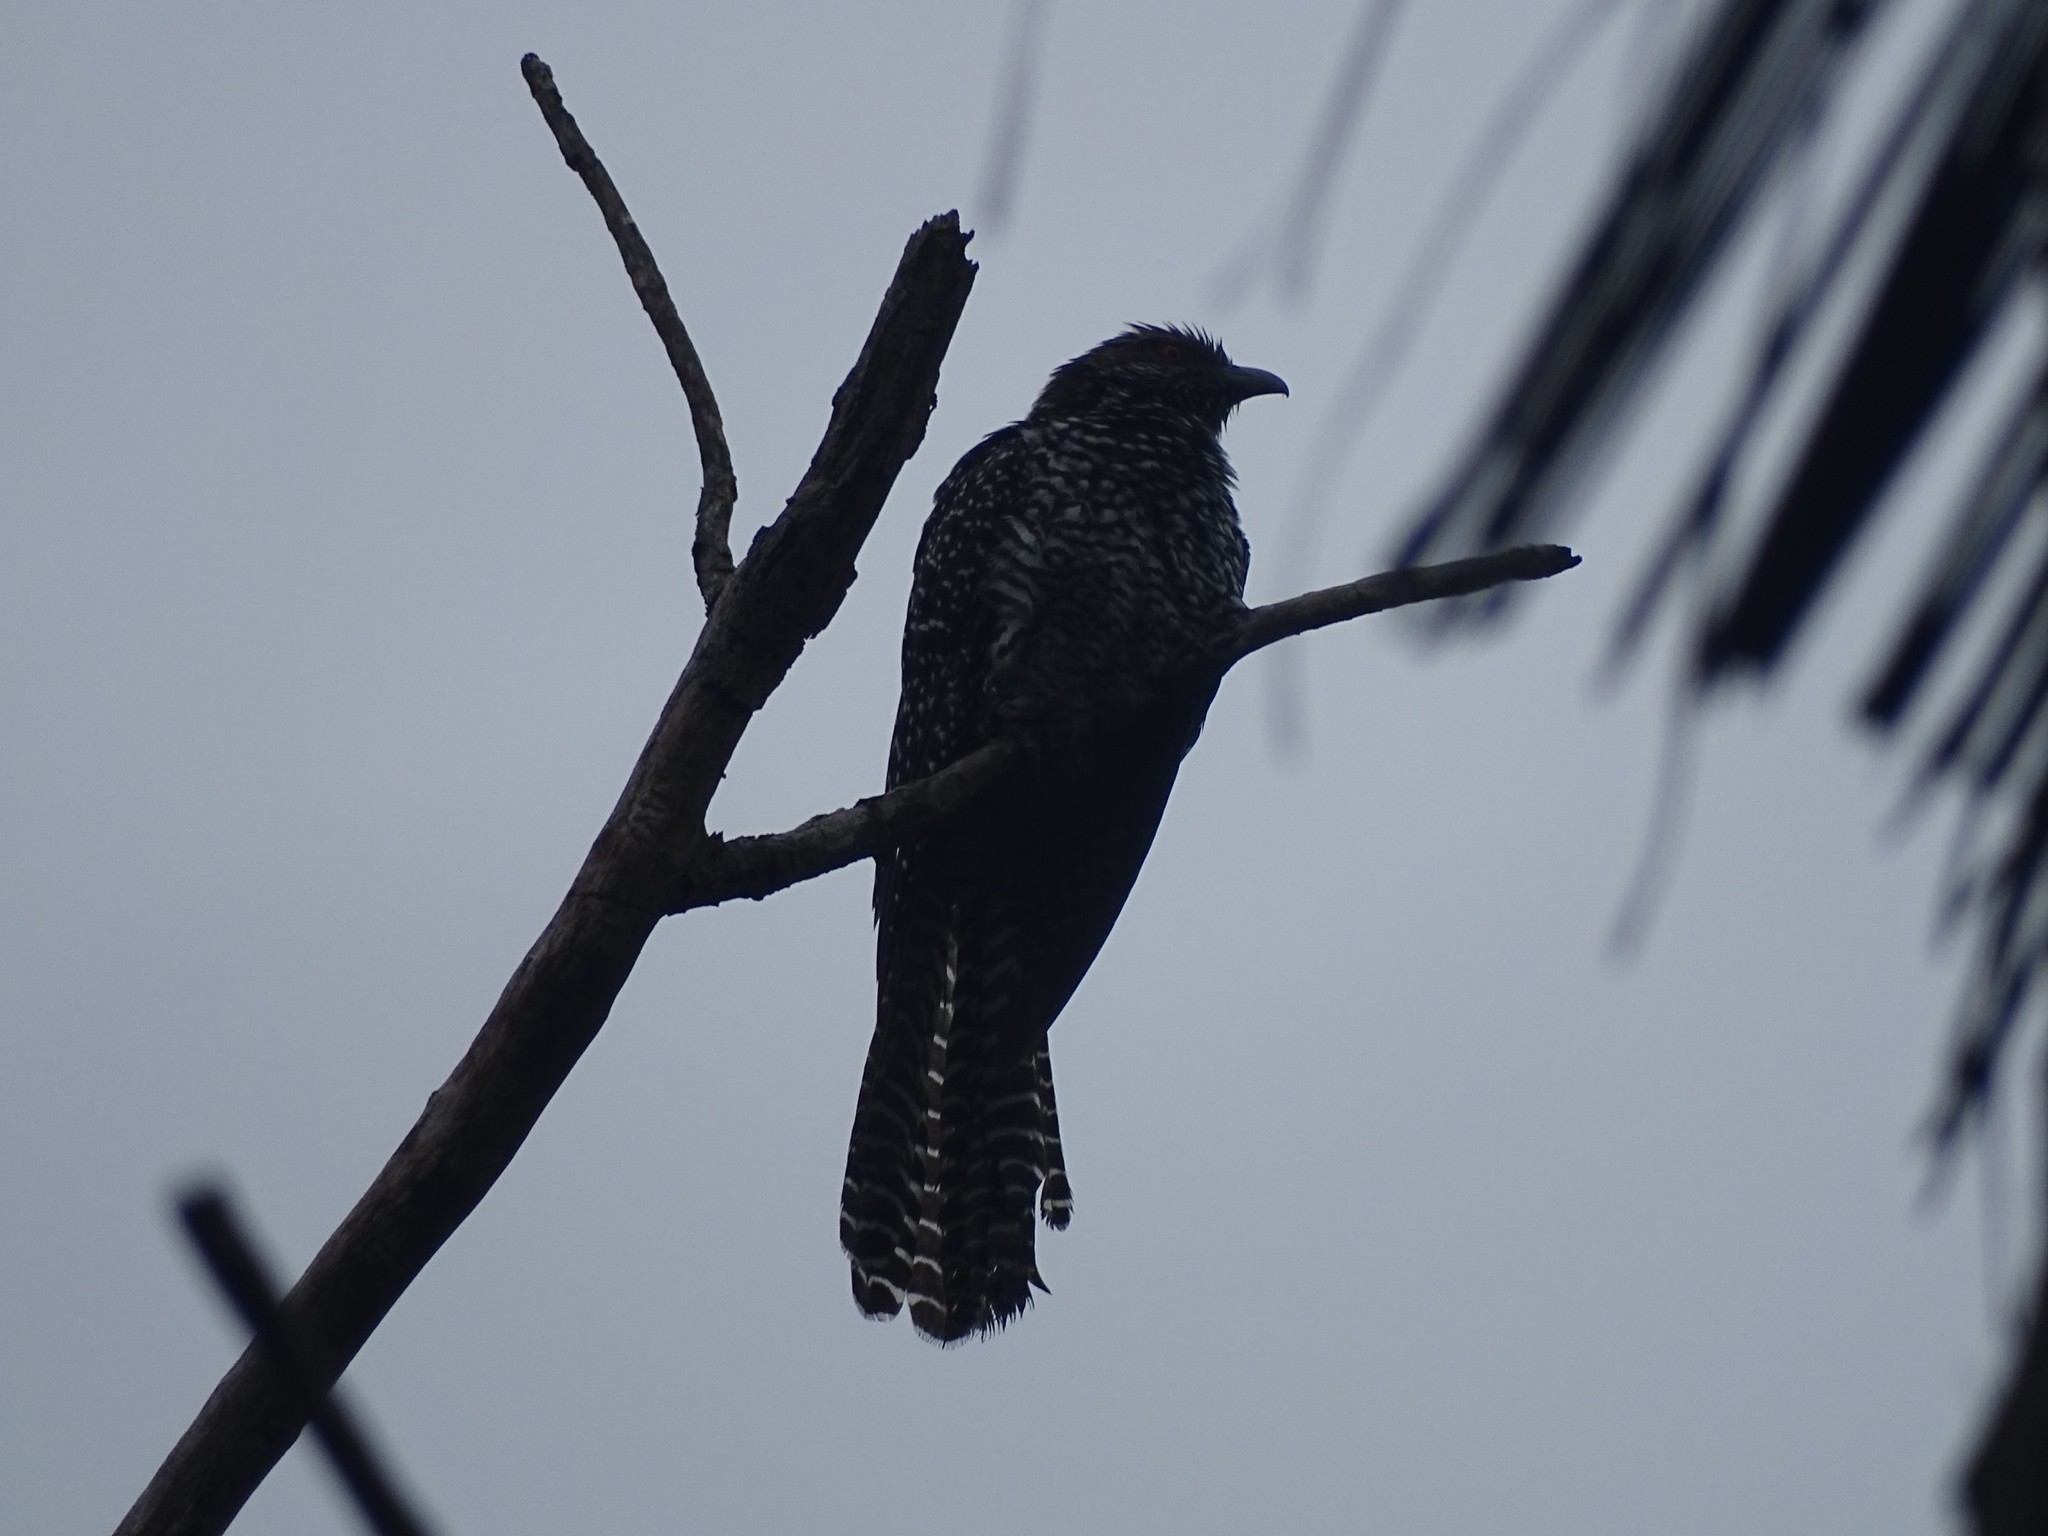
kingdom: Animalia
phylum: Chordata
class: Aves
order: Cuculiformes
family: Cuculidae
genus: Eudynamys
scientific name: Eudynamys scolopaceus
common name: Asian koel
